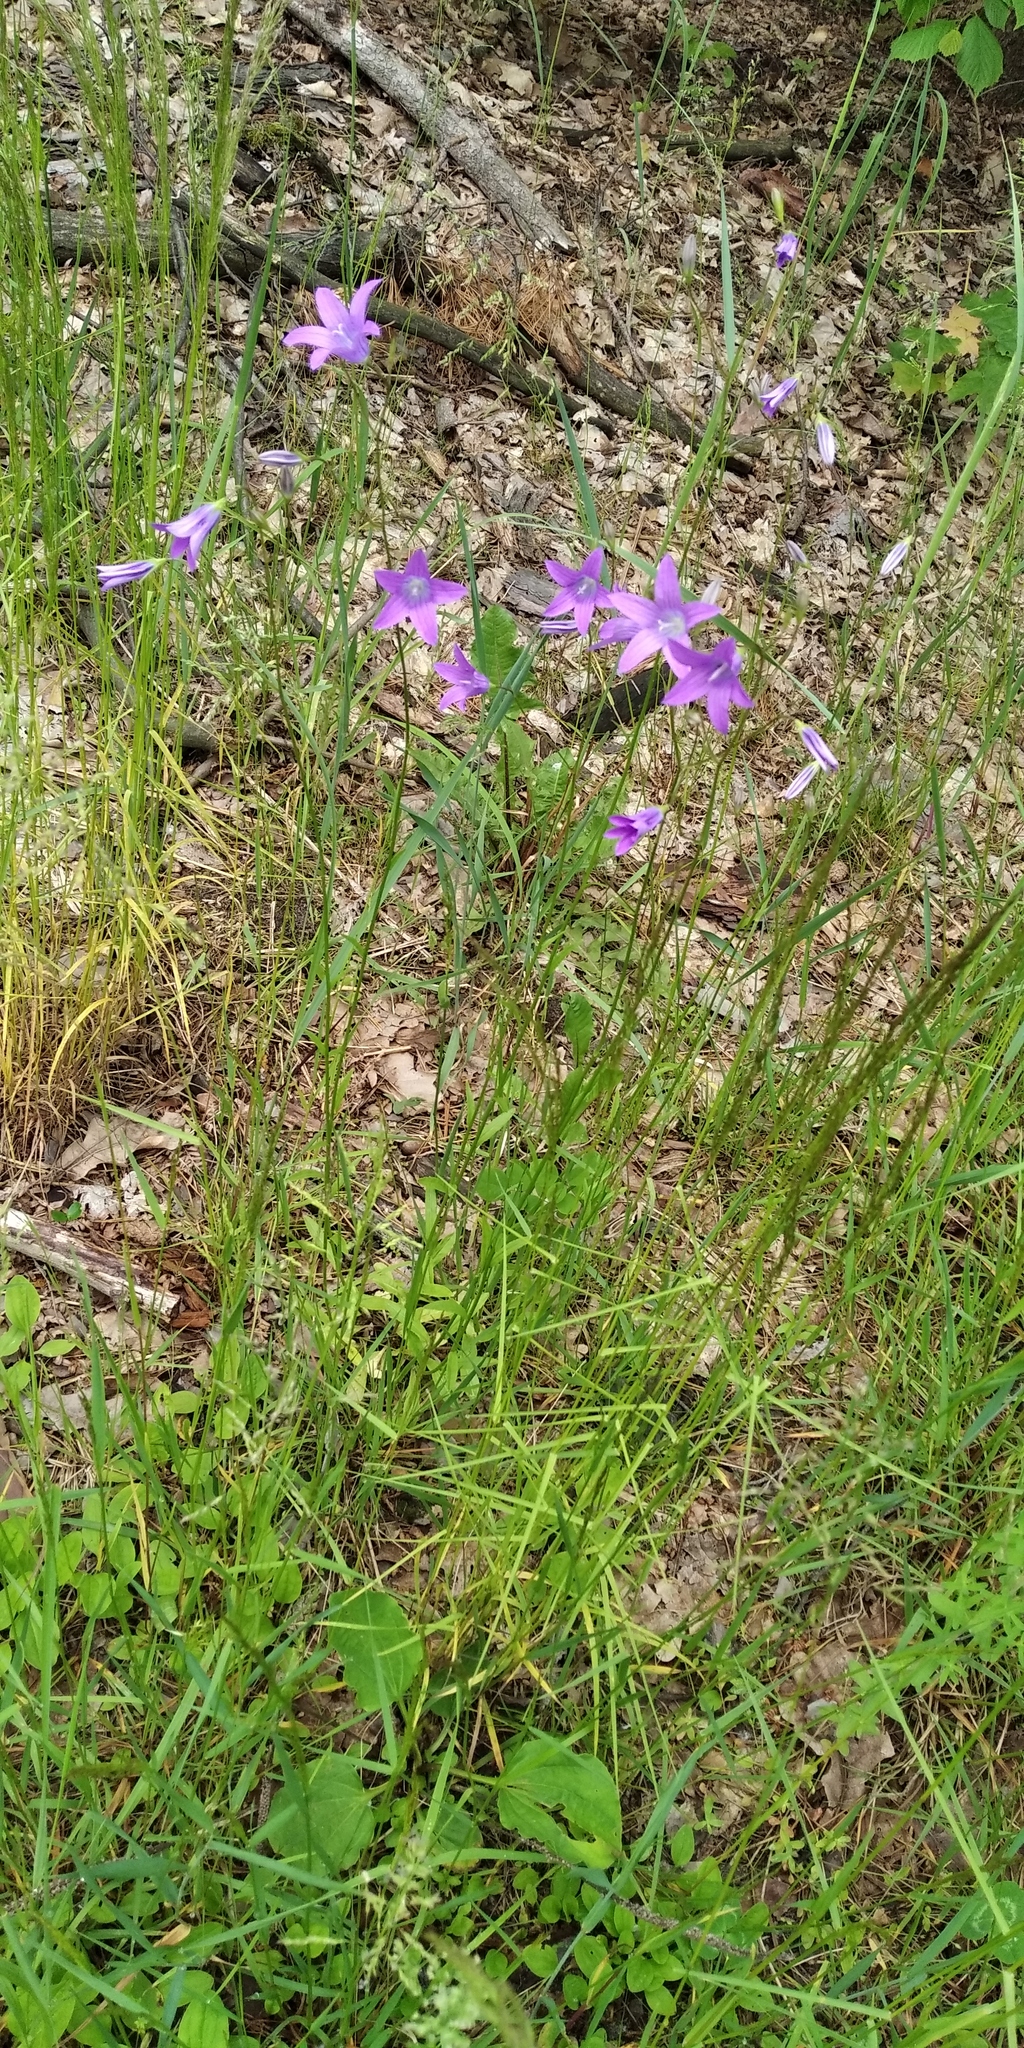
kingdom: Plantae
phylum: Tracheophyta
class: Magnoliopsida
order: Asterales
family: Campanulaceae
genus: Campanula
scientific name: Campanula rotundifolia
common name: Harebell
